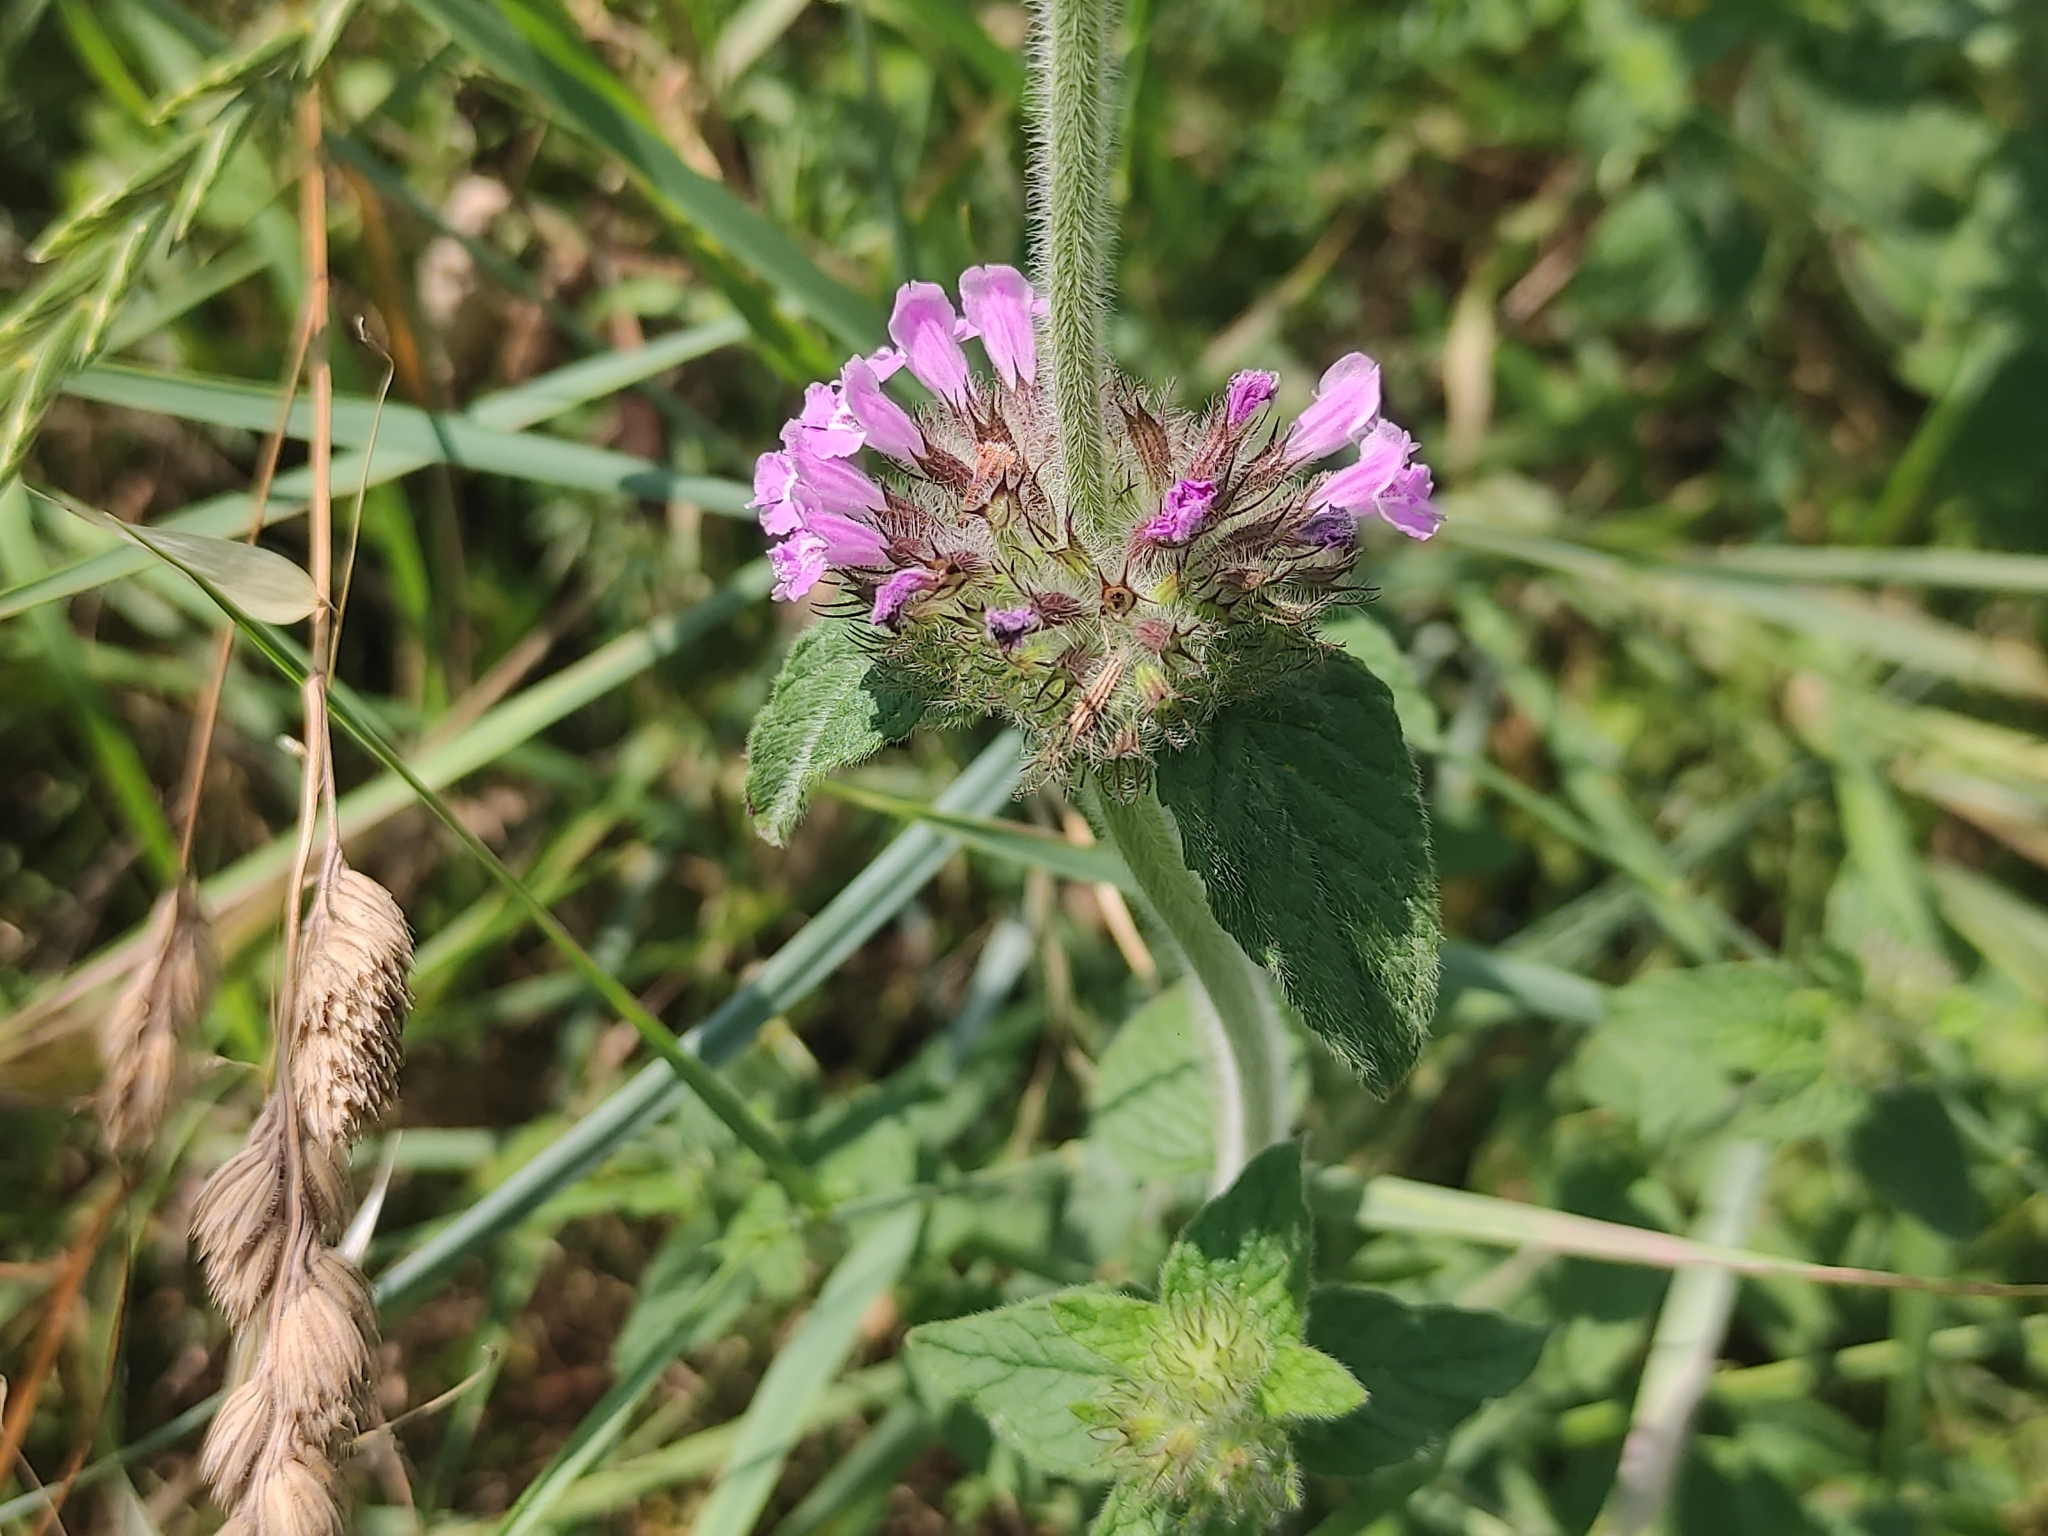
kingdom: Plantae
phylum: Tracheophyta
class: Magnoliopsida
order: Lamiales
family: Lamiaceae
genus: Clinopodium
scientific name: Clinopodium vulgare
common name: Wild basil
